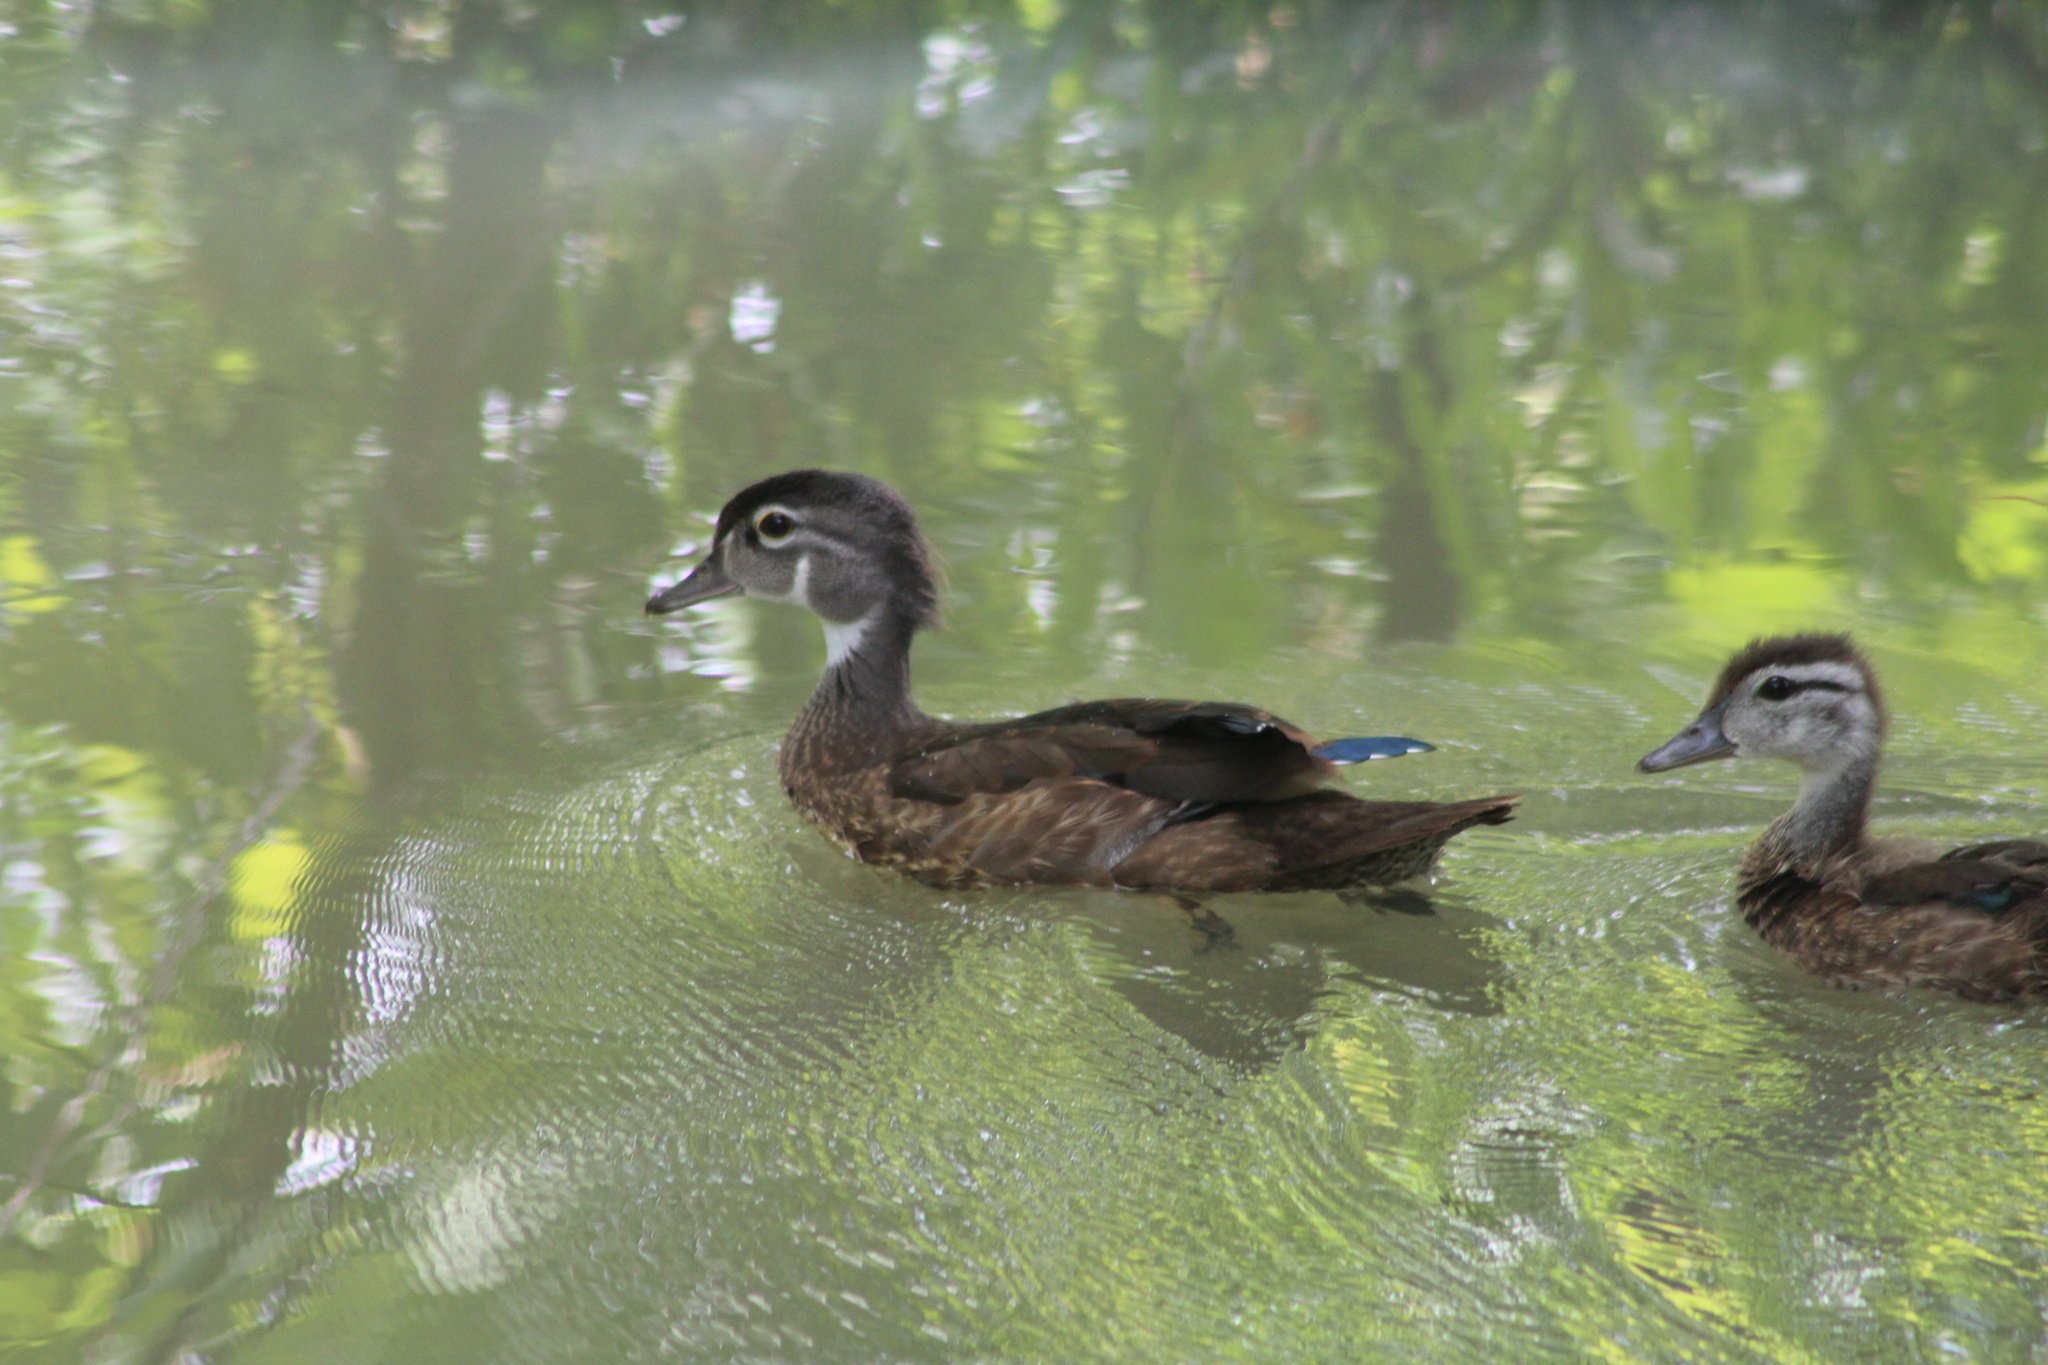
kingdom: Animalia
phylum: Chordata
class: Aves
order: Anseriformes
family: Anatidae
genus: Aix
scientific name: Aix sponsa
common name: Wood duck
